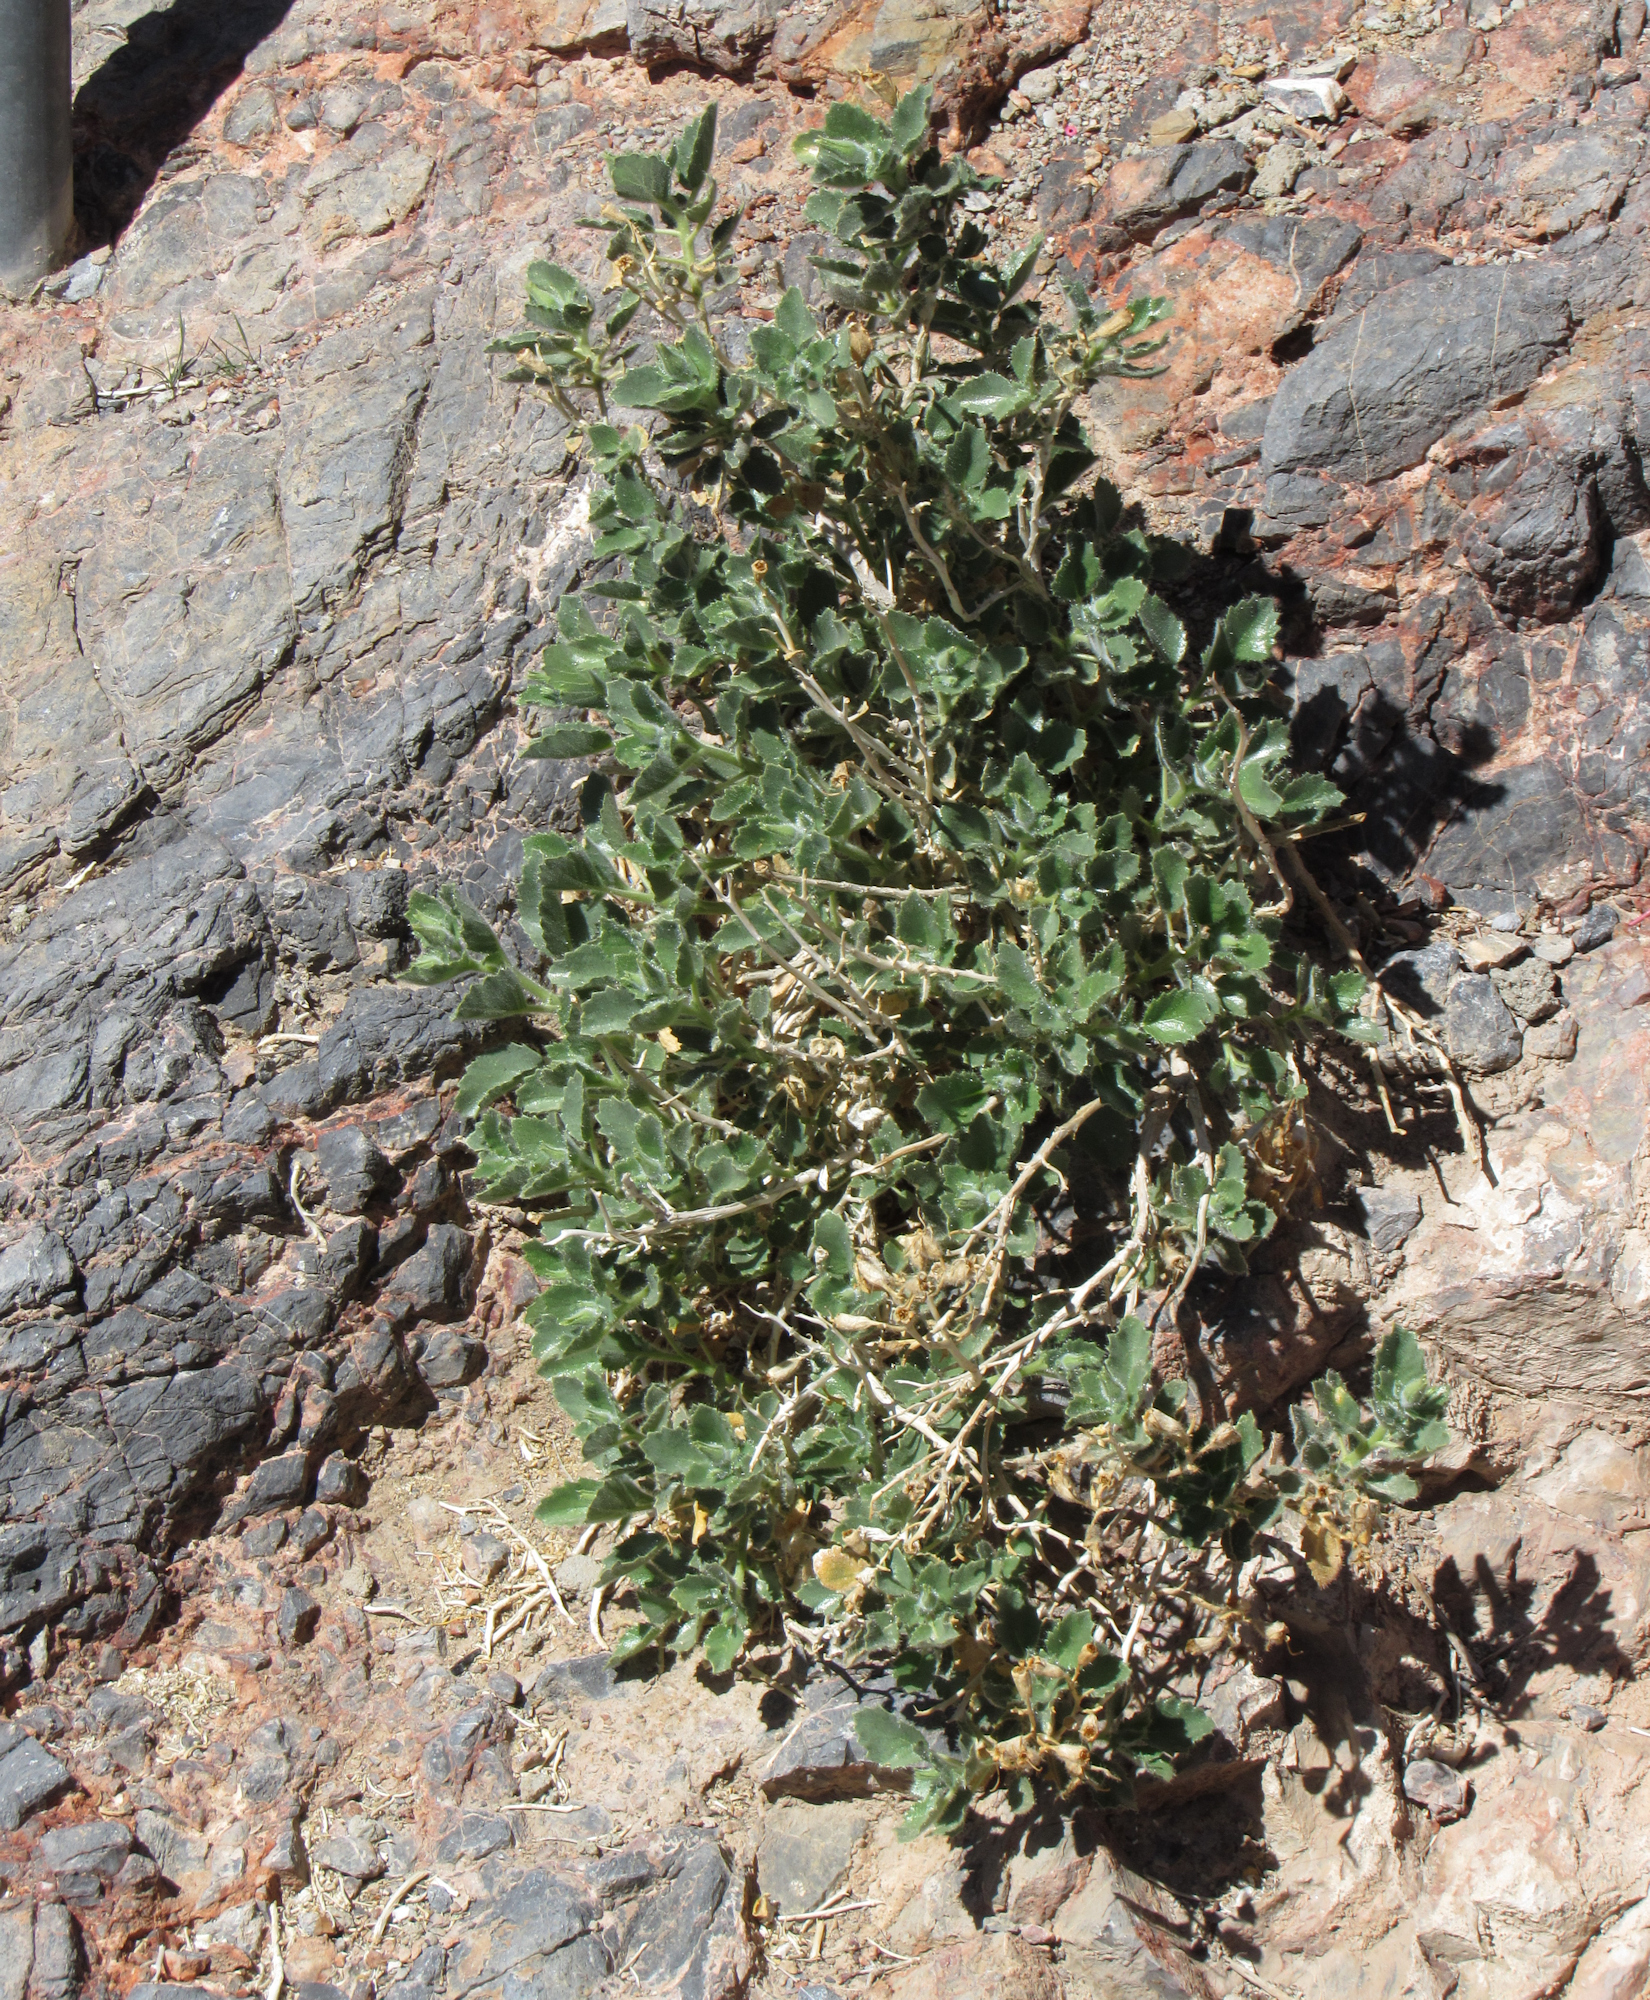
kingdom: Plantae
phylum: Tracheophyta
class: Magnoliopsida
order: Cornales
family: Loasaceae
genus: Eucnide
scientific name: Eucnide urens
